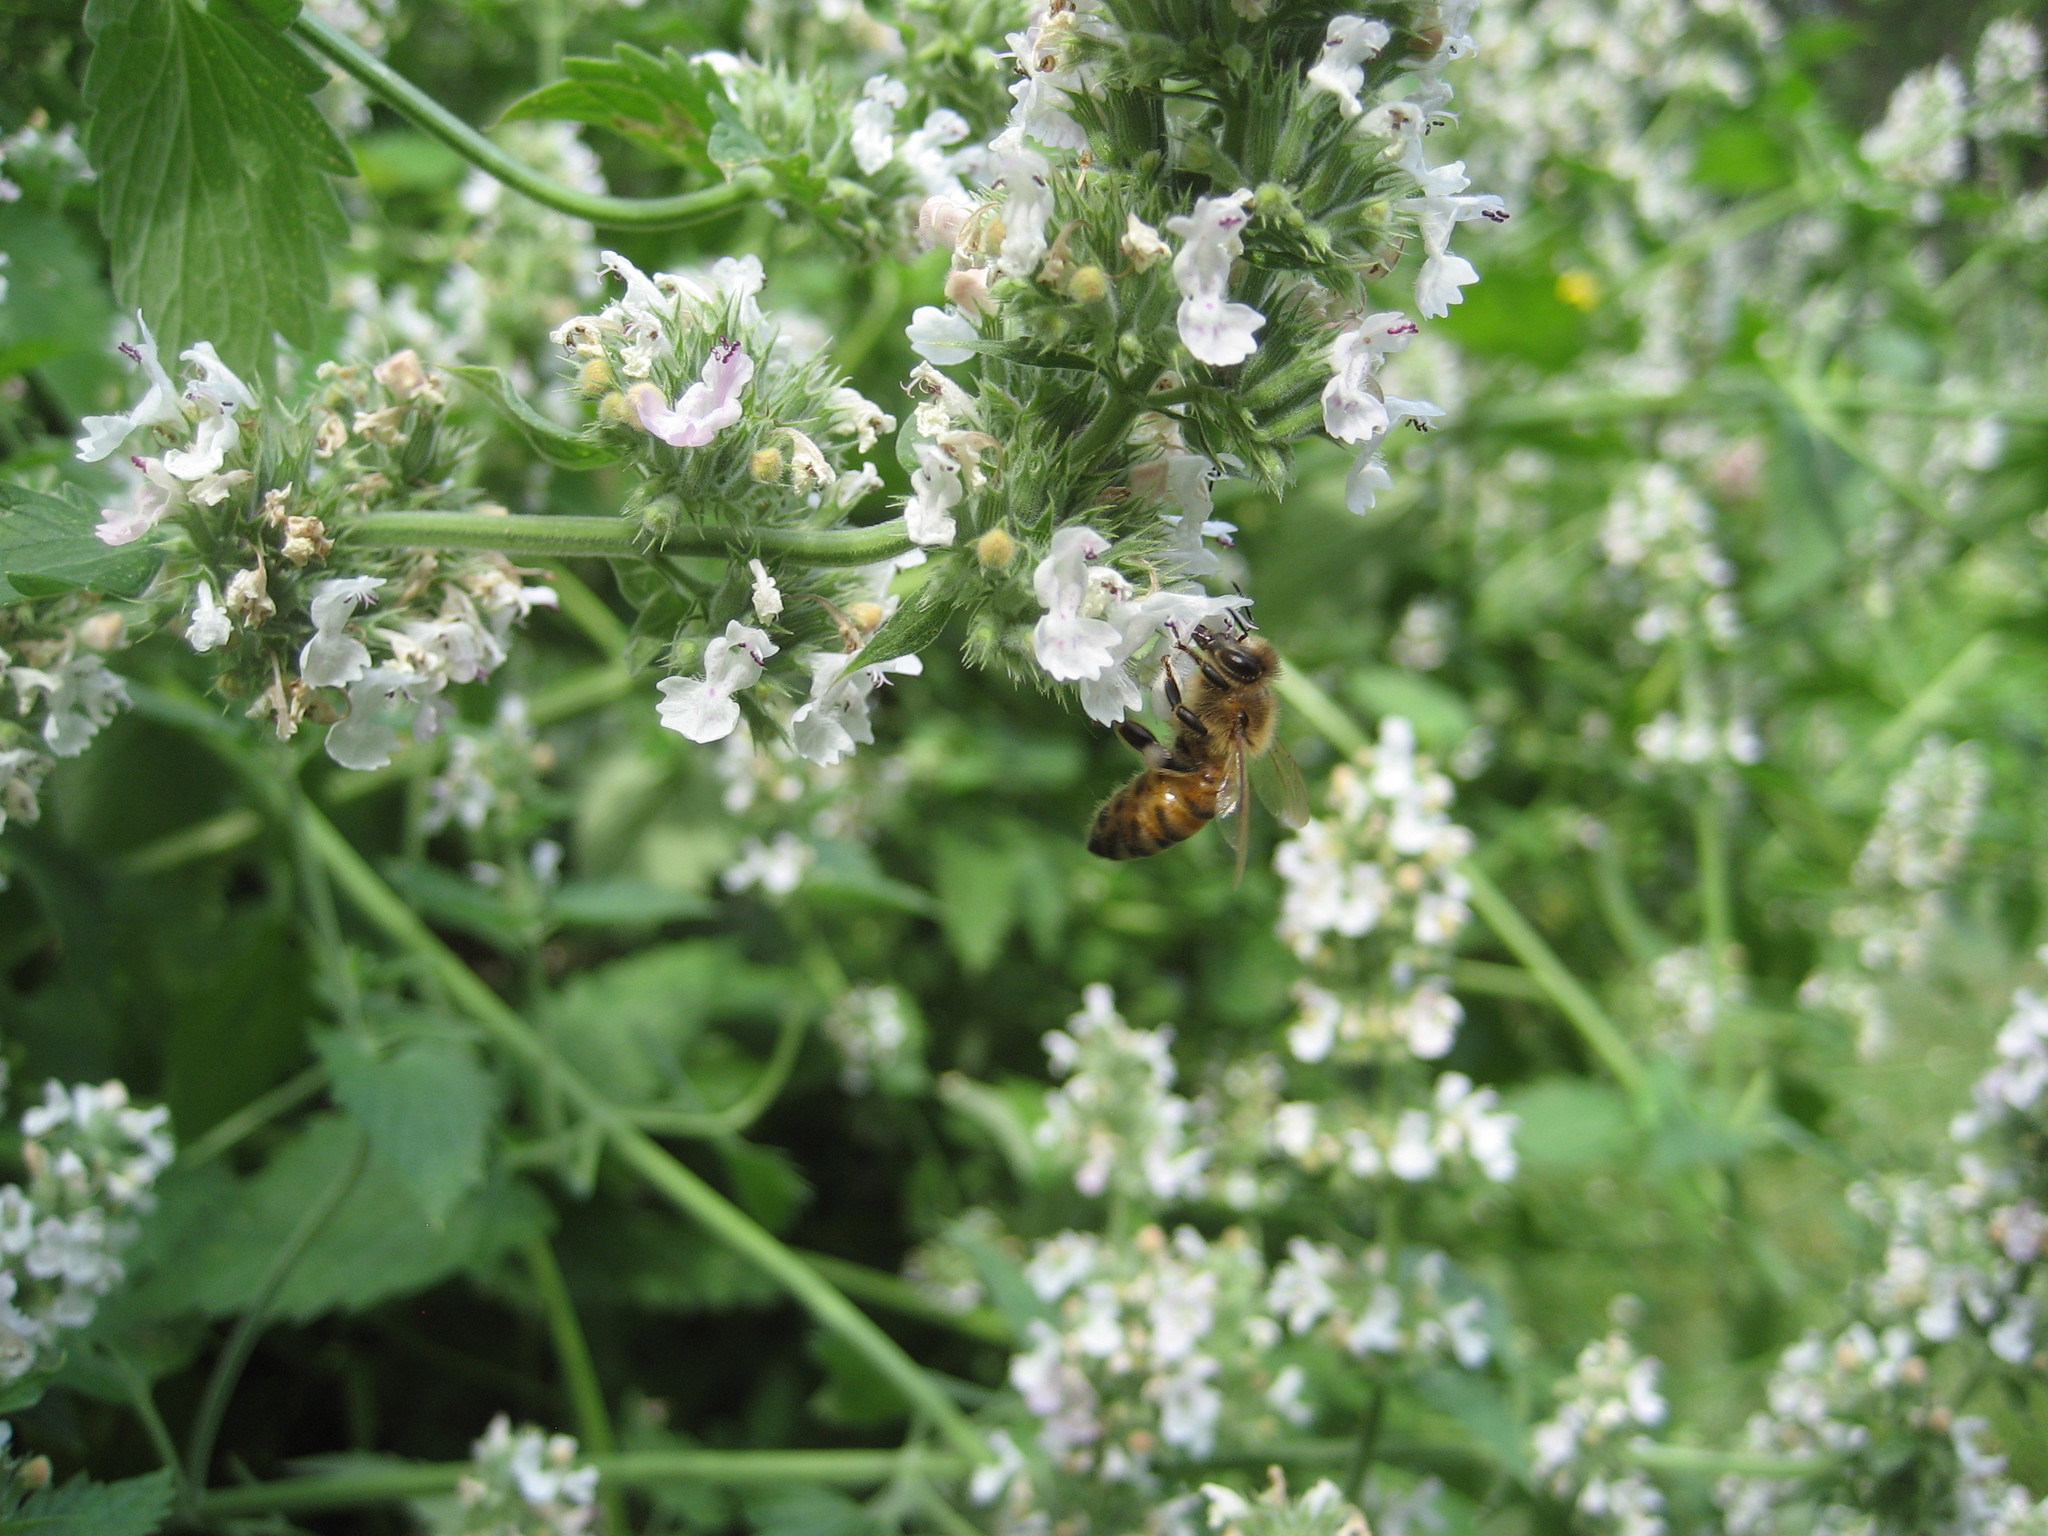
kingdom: Animalia
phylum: Arthropoda
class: Insecta
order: Hymenoptera
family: Apidae
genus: Apis
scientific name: Apis mellifera
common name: Honey bee
